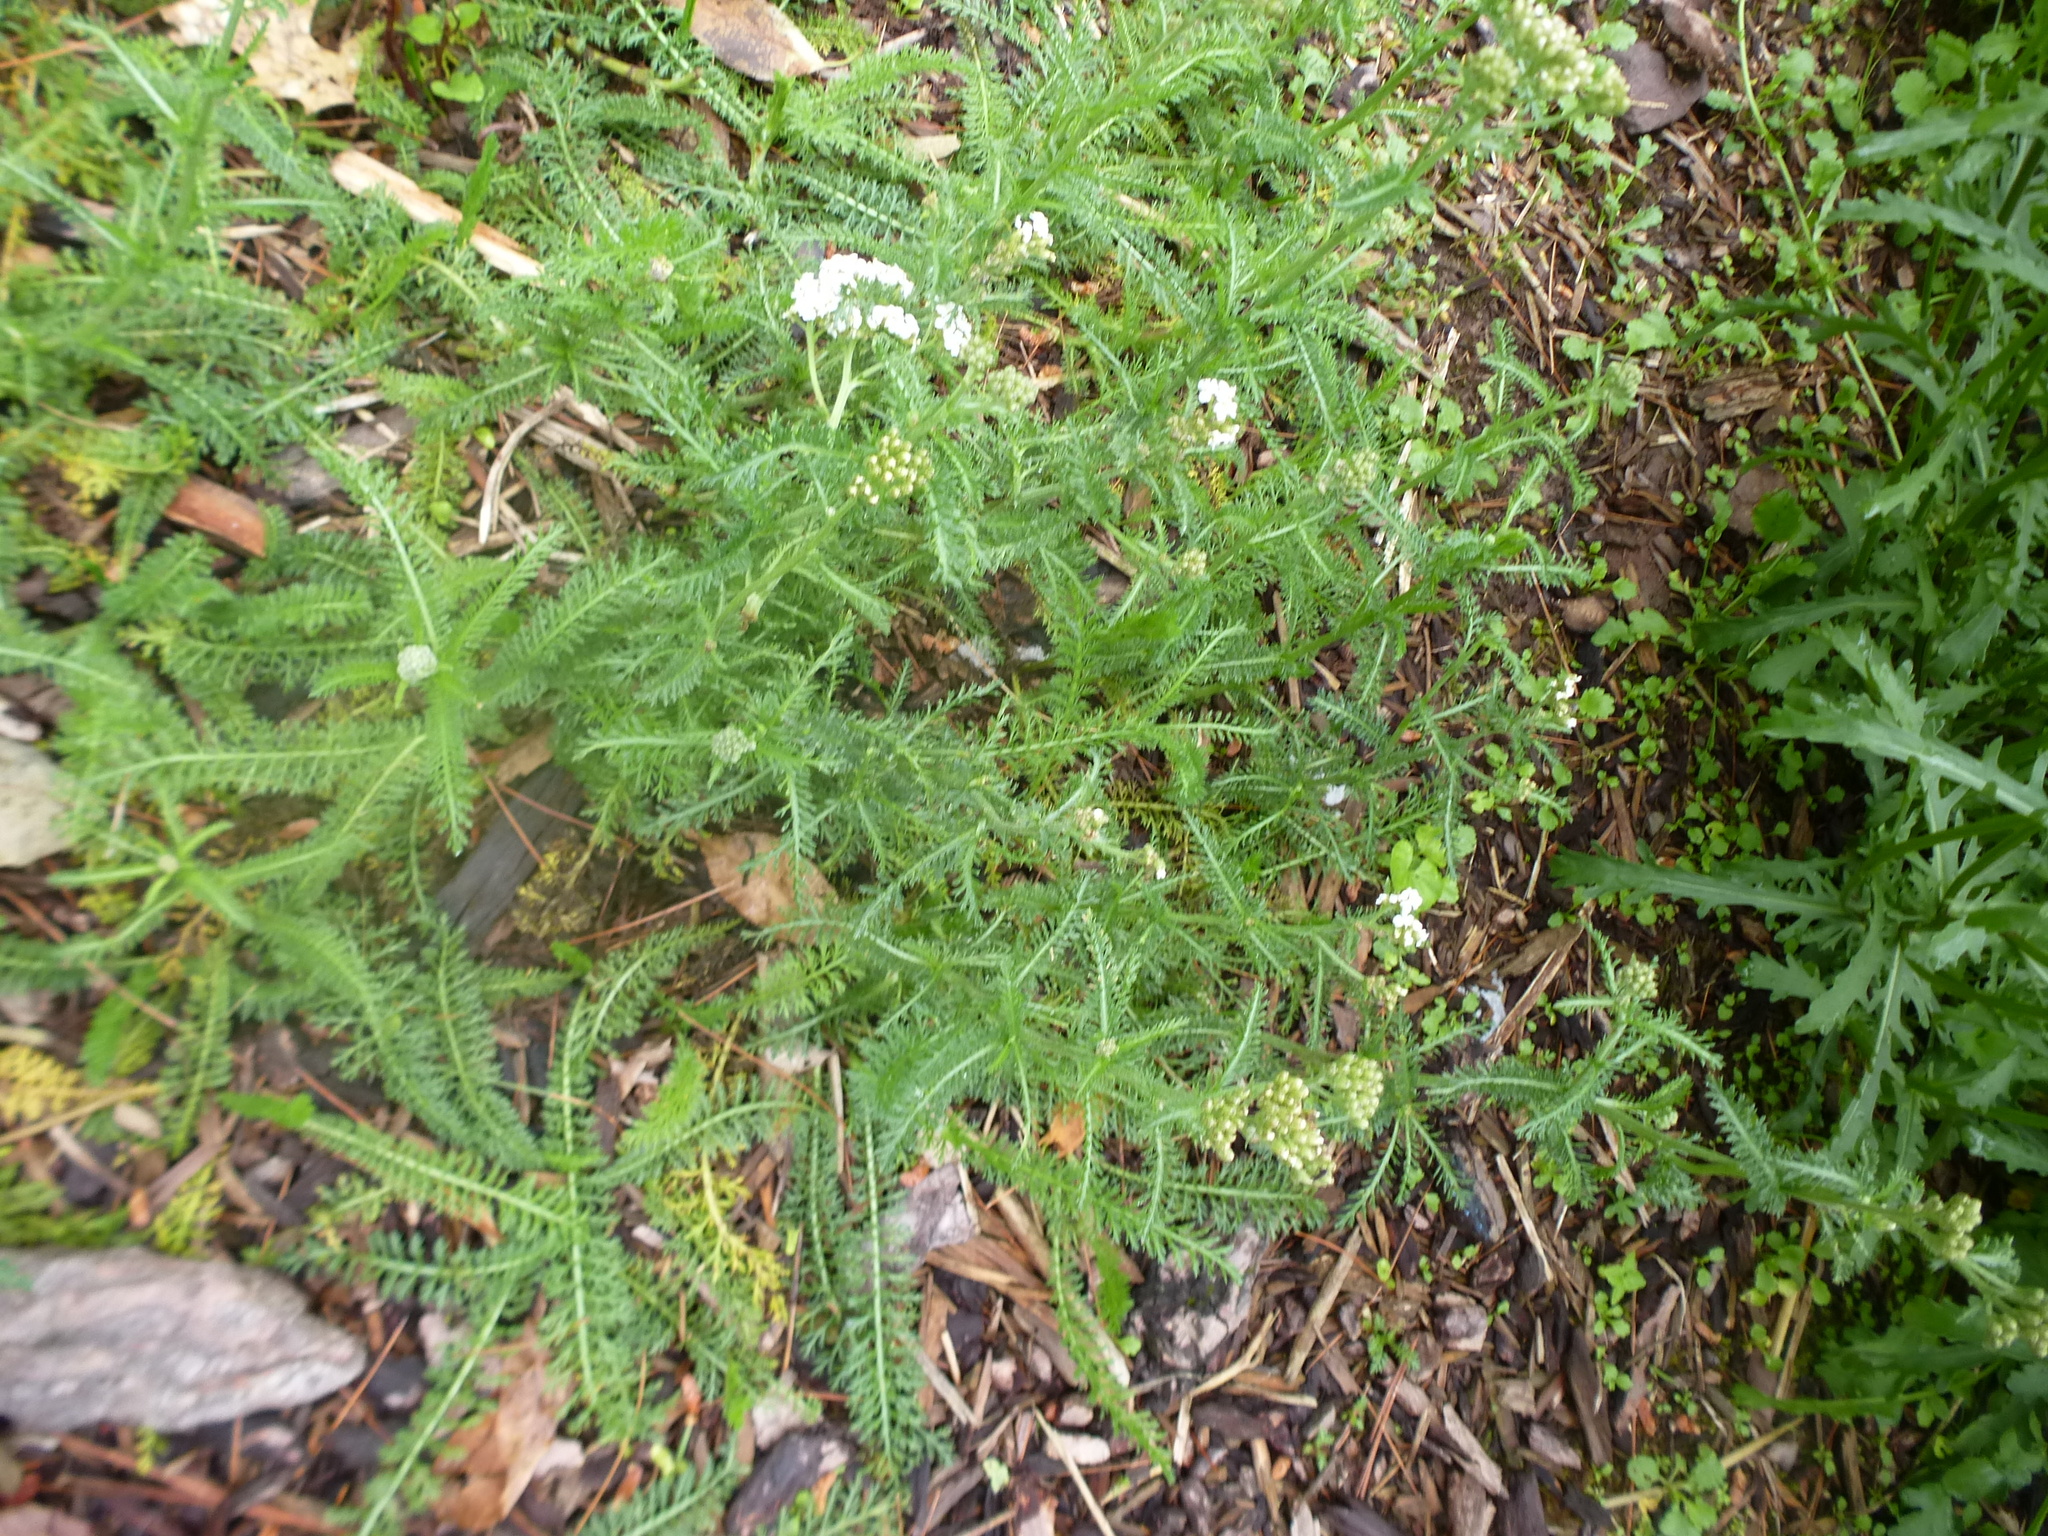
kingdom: Plantae
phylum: Tracheophyta
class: Magnoliopsida
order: Asterales
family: Asteraceae
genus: Achillea
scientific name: Achillea millefolium
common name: Yarrow
